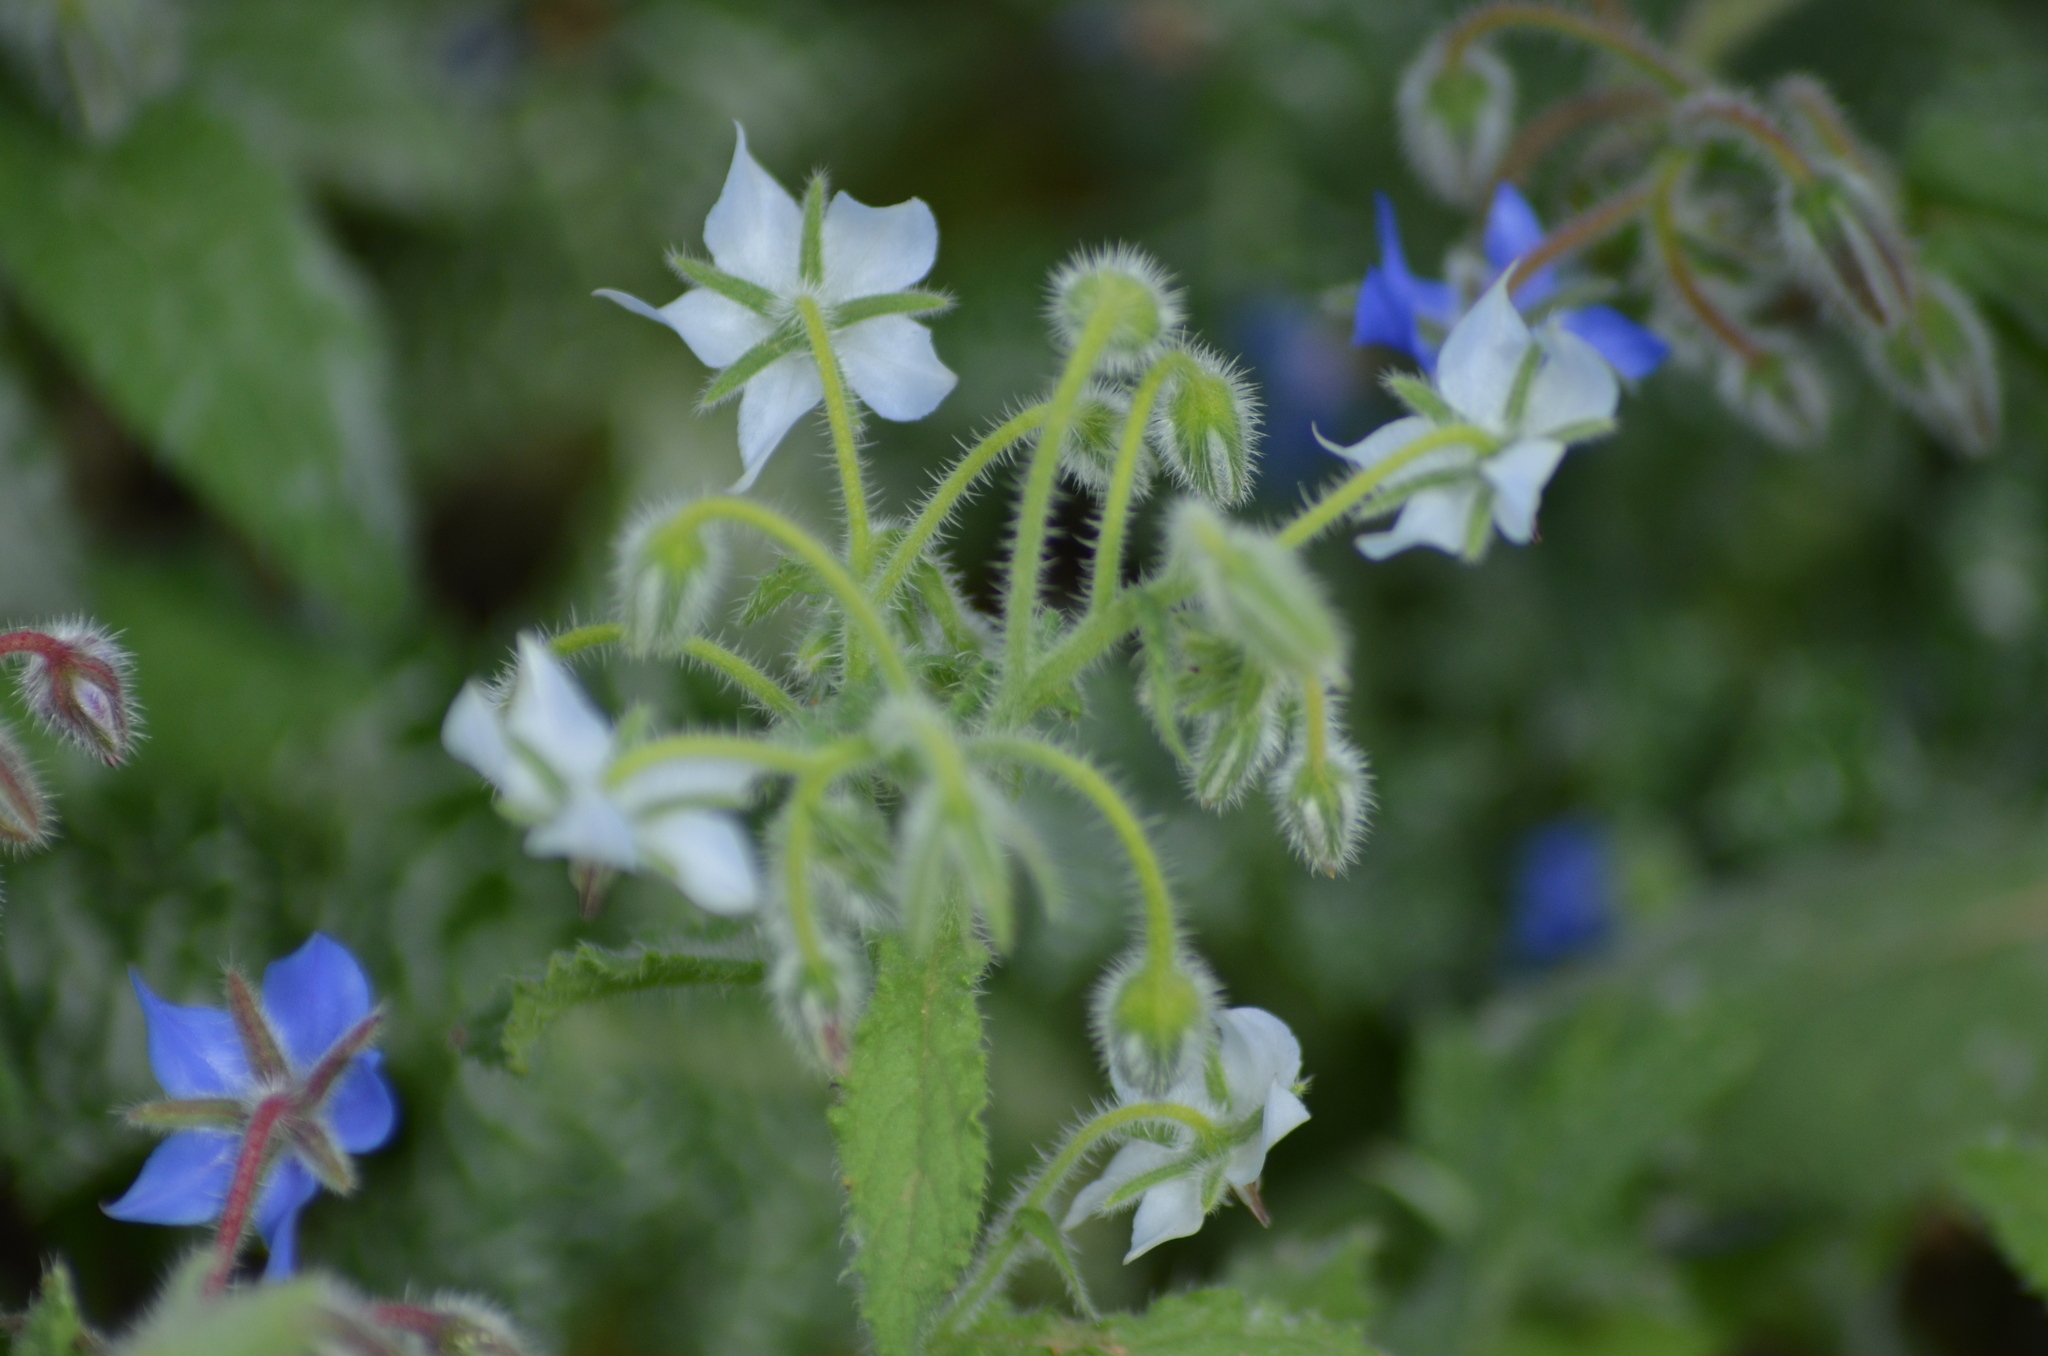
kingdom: Plantae
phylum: Tracheophyta
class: Magnoliopsida
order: Boraginales
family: Boraginaceae
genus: Borago
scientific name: Borago officinalis
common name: Borage
